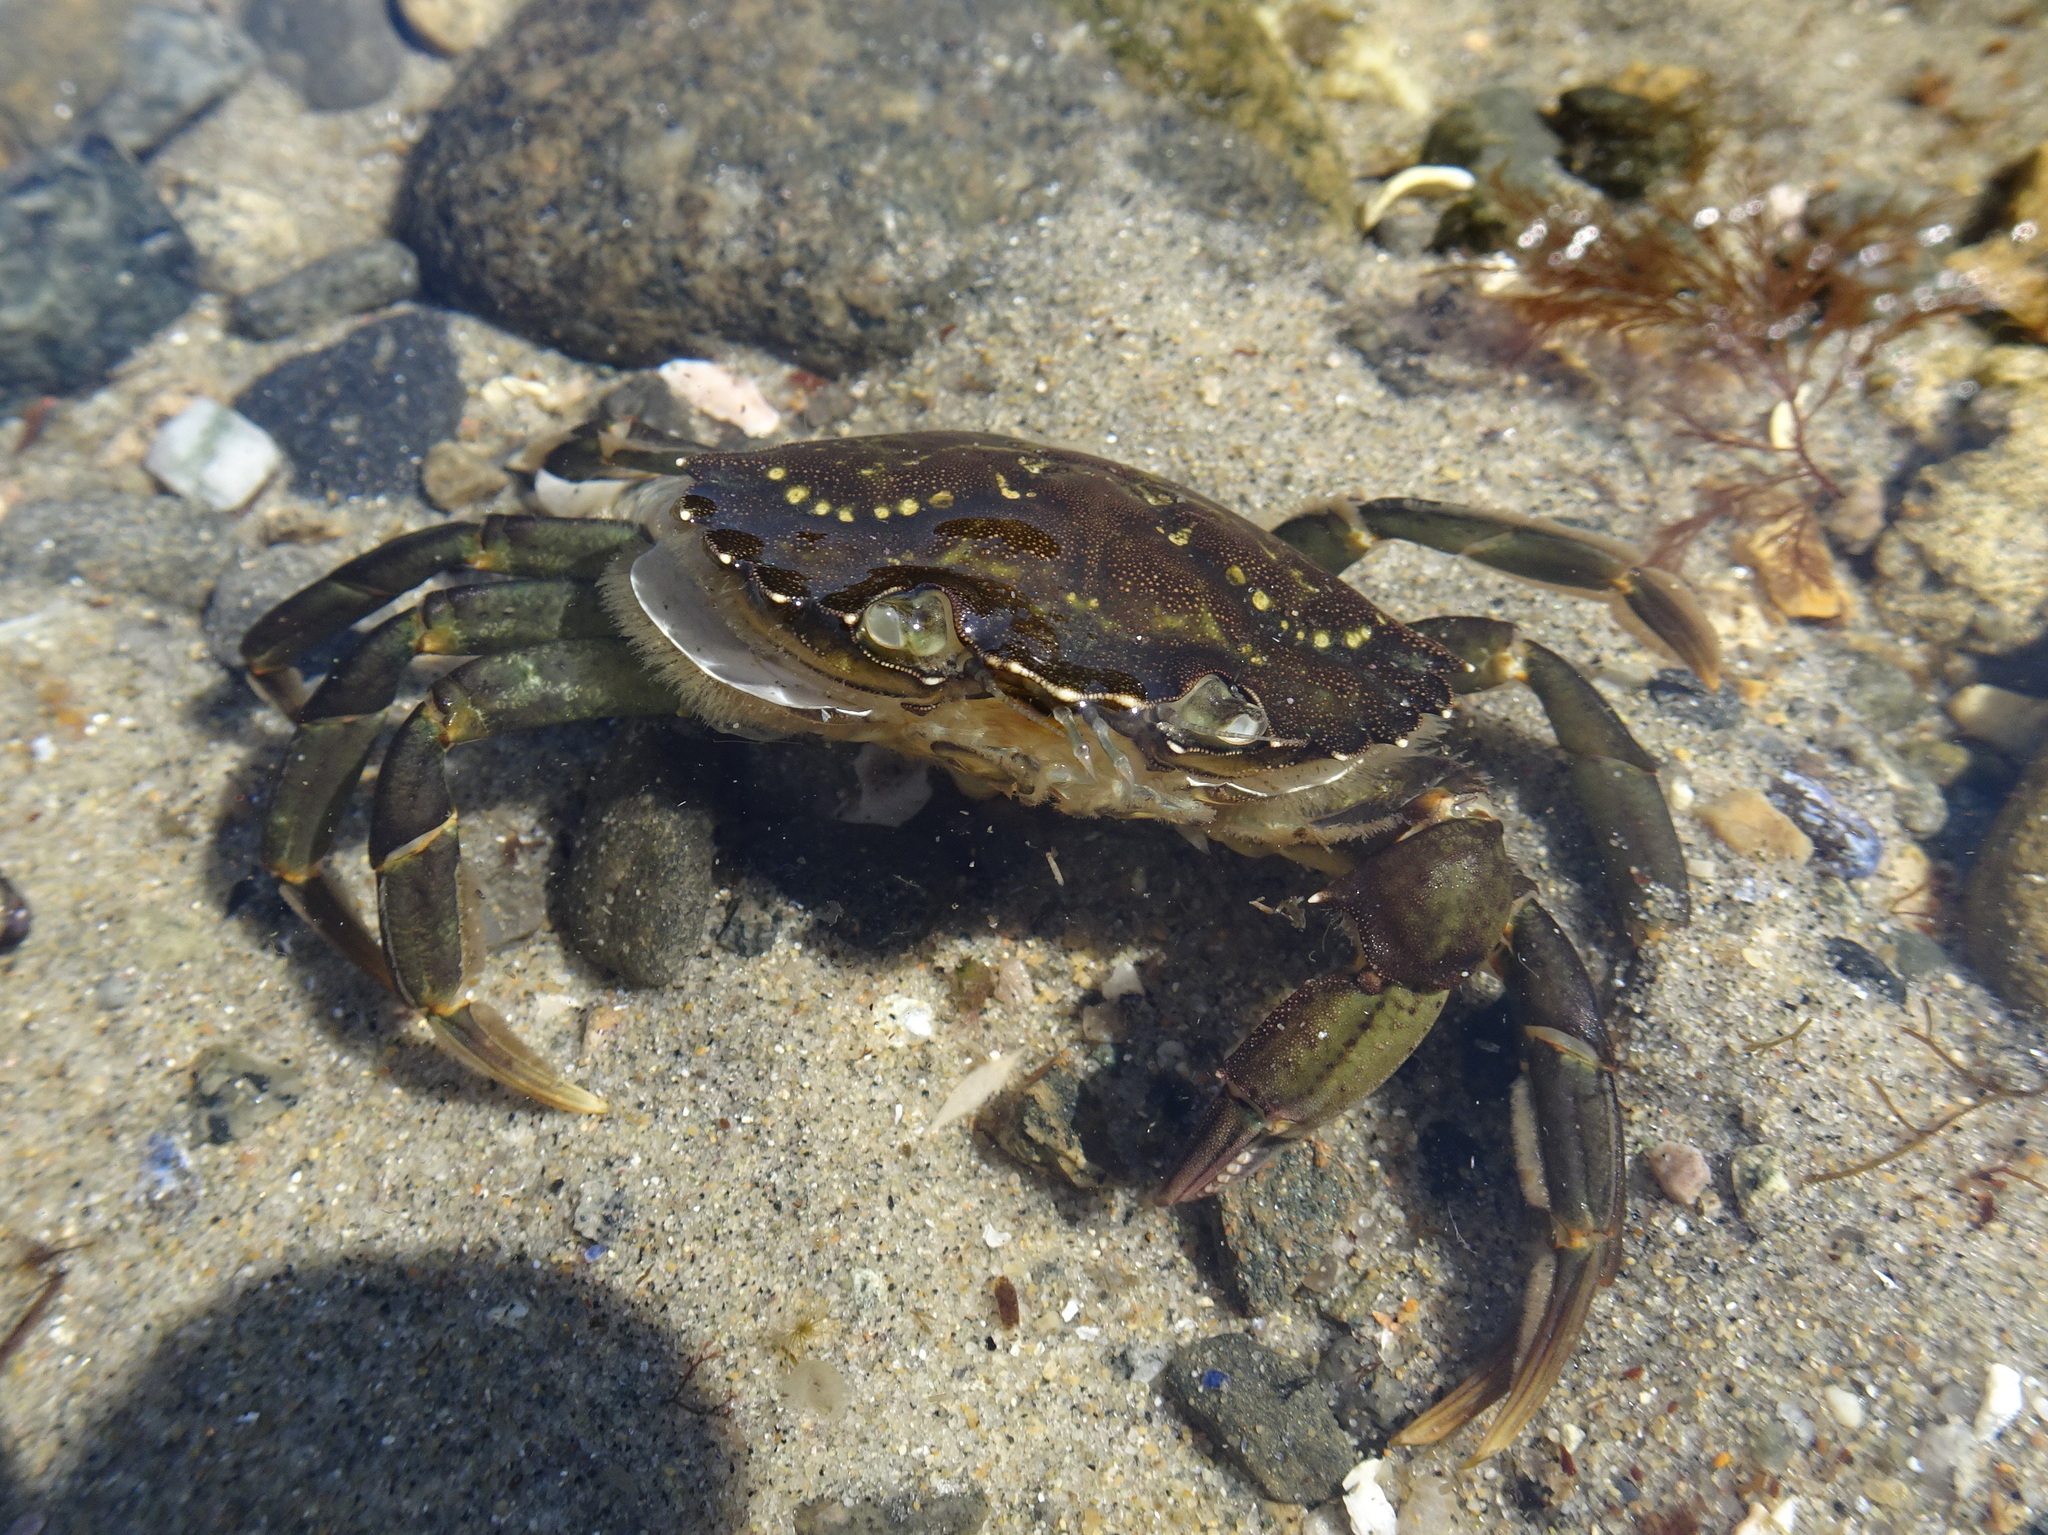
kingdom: Animalia
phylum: Arthropoda
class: Malacostraca
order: Decapoda
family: Carcinidae
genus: Carcinus
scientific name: Carcinus maenas
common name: European green crab
